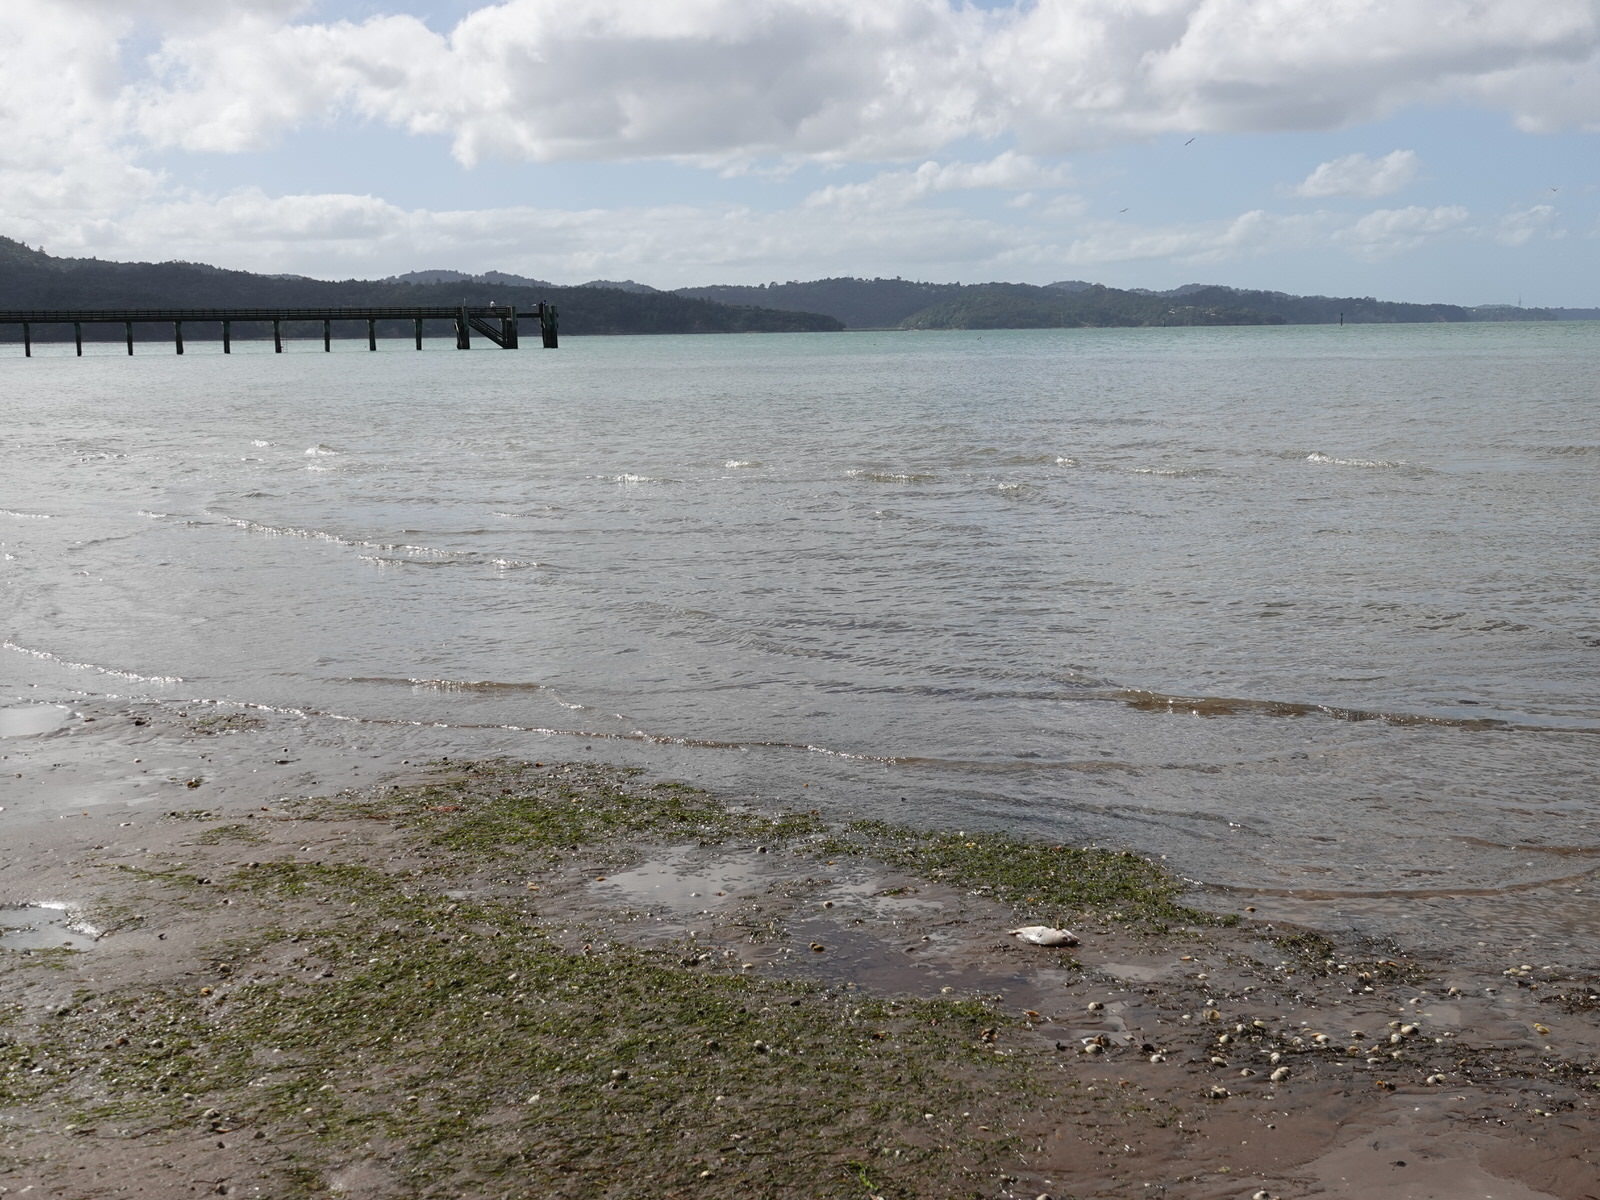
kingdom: Animalia
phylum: Chordata
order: Perciformes
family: Sparidae
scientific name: Sparidae
